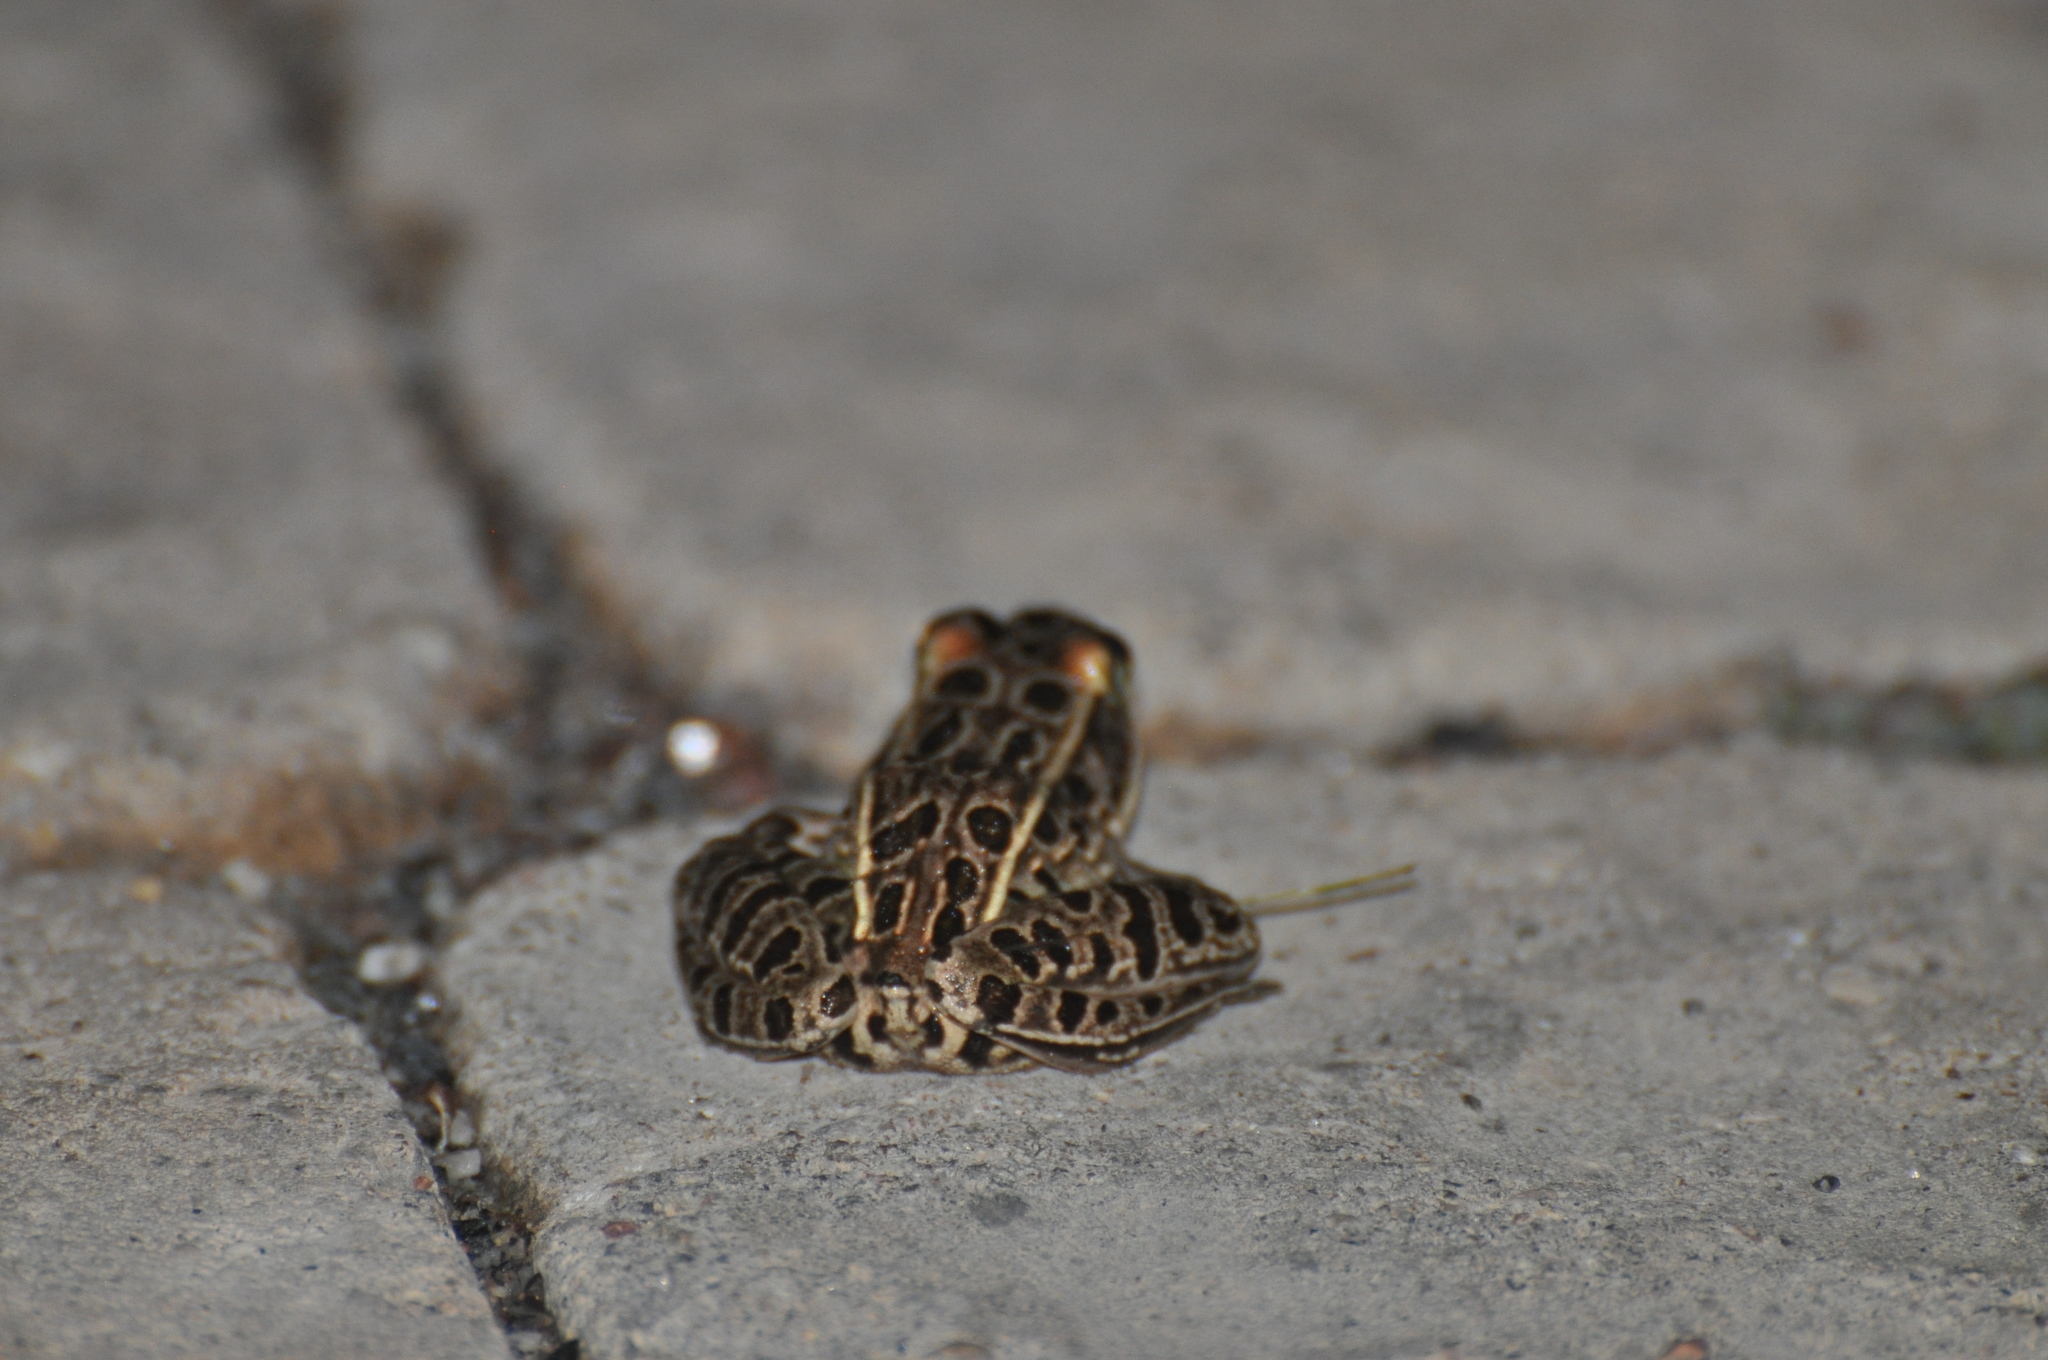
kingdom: Animalia
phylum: Chordata
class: Amphibia
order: Anura
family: Ranidae
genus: Lithobates
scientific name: Lithobates pipiens
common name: Northern leopard frog
